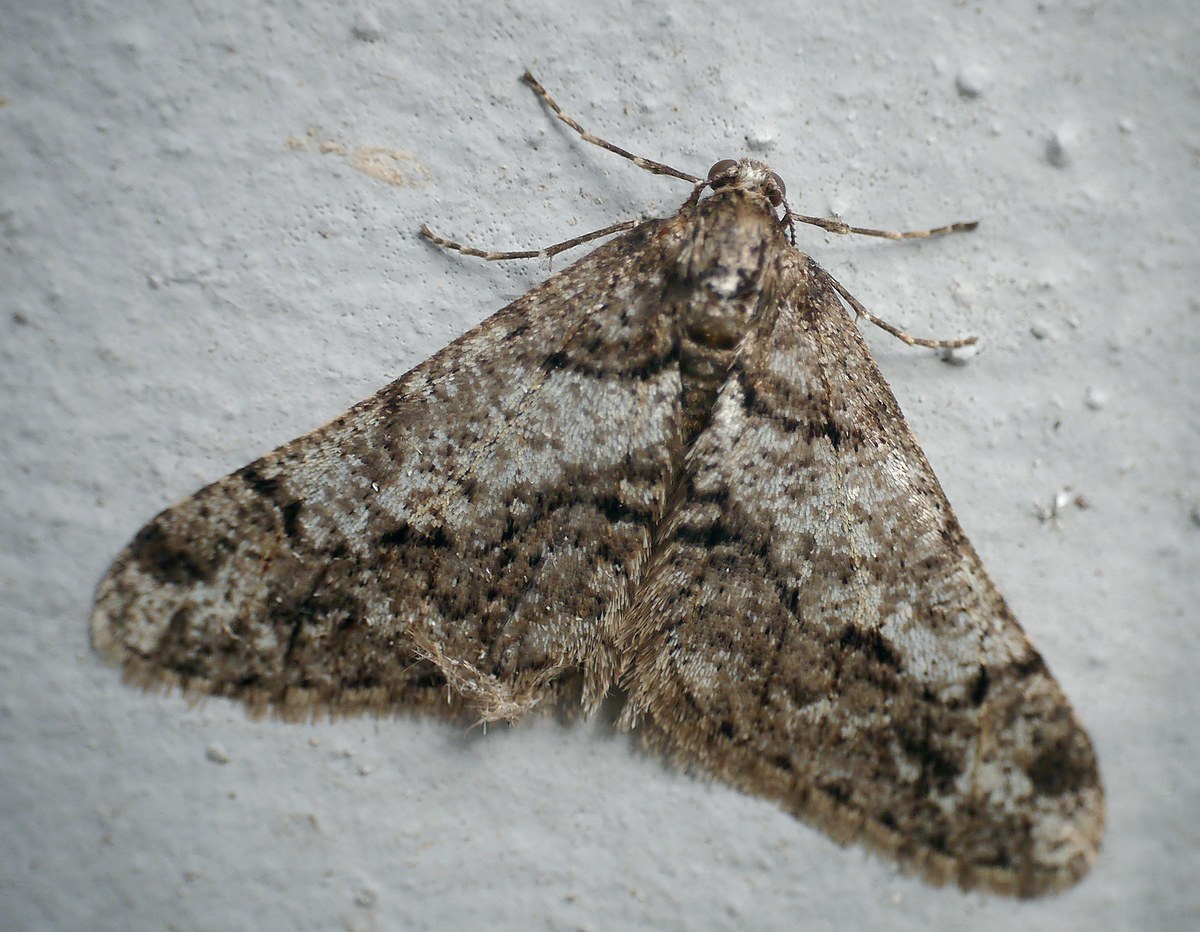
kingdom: Animalia
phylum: Arthropoda
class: Insecta
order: Lepidoptera
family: Geometridae
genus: Agriopis
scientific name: Agriopis leucophaearia
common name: Spring usher
